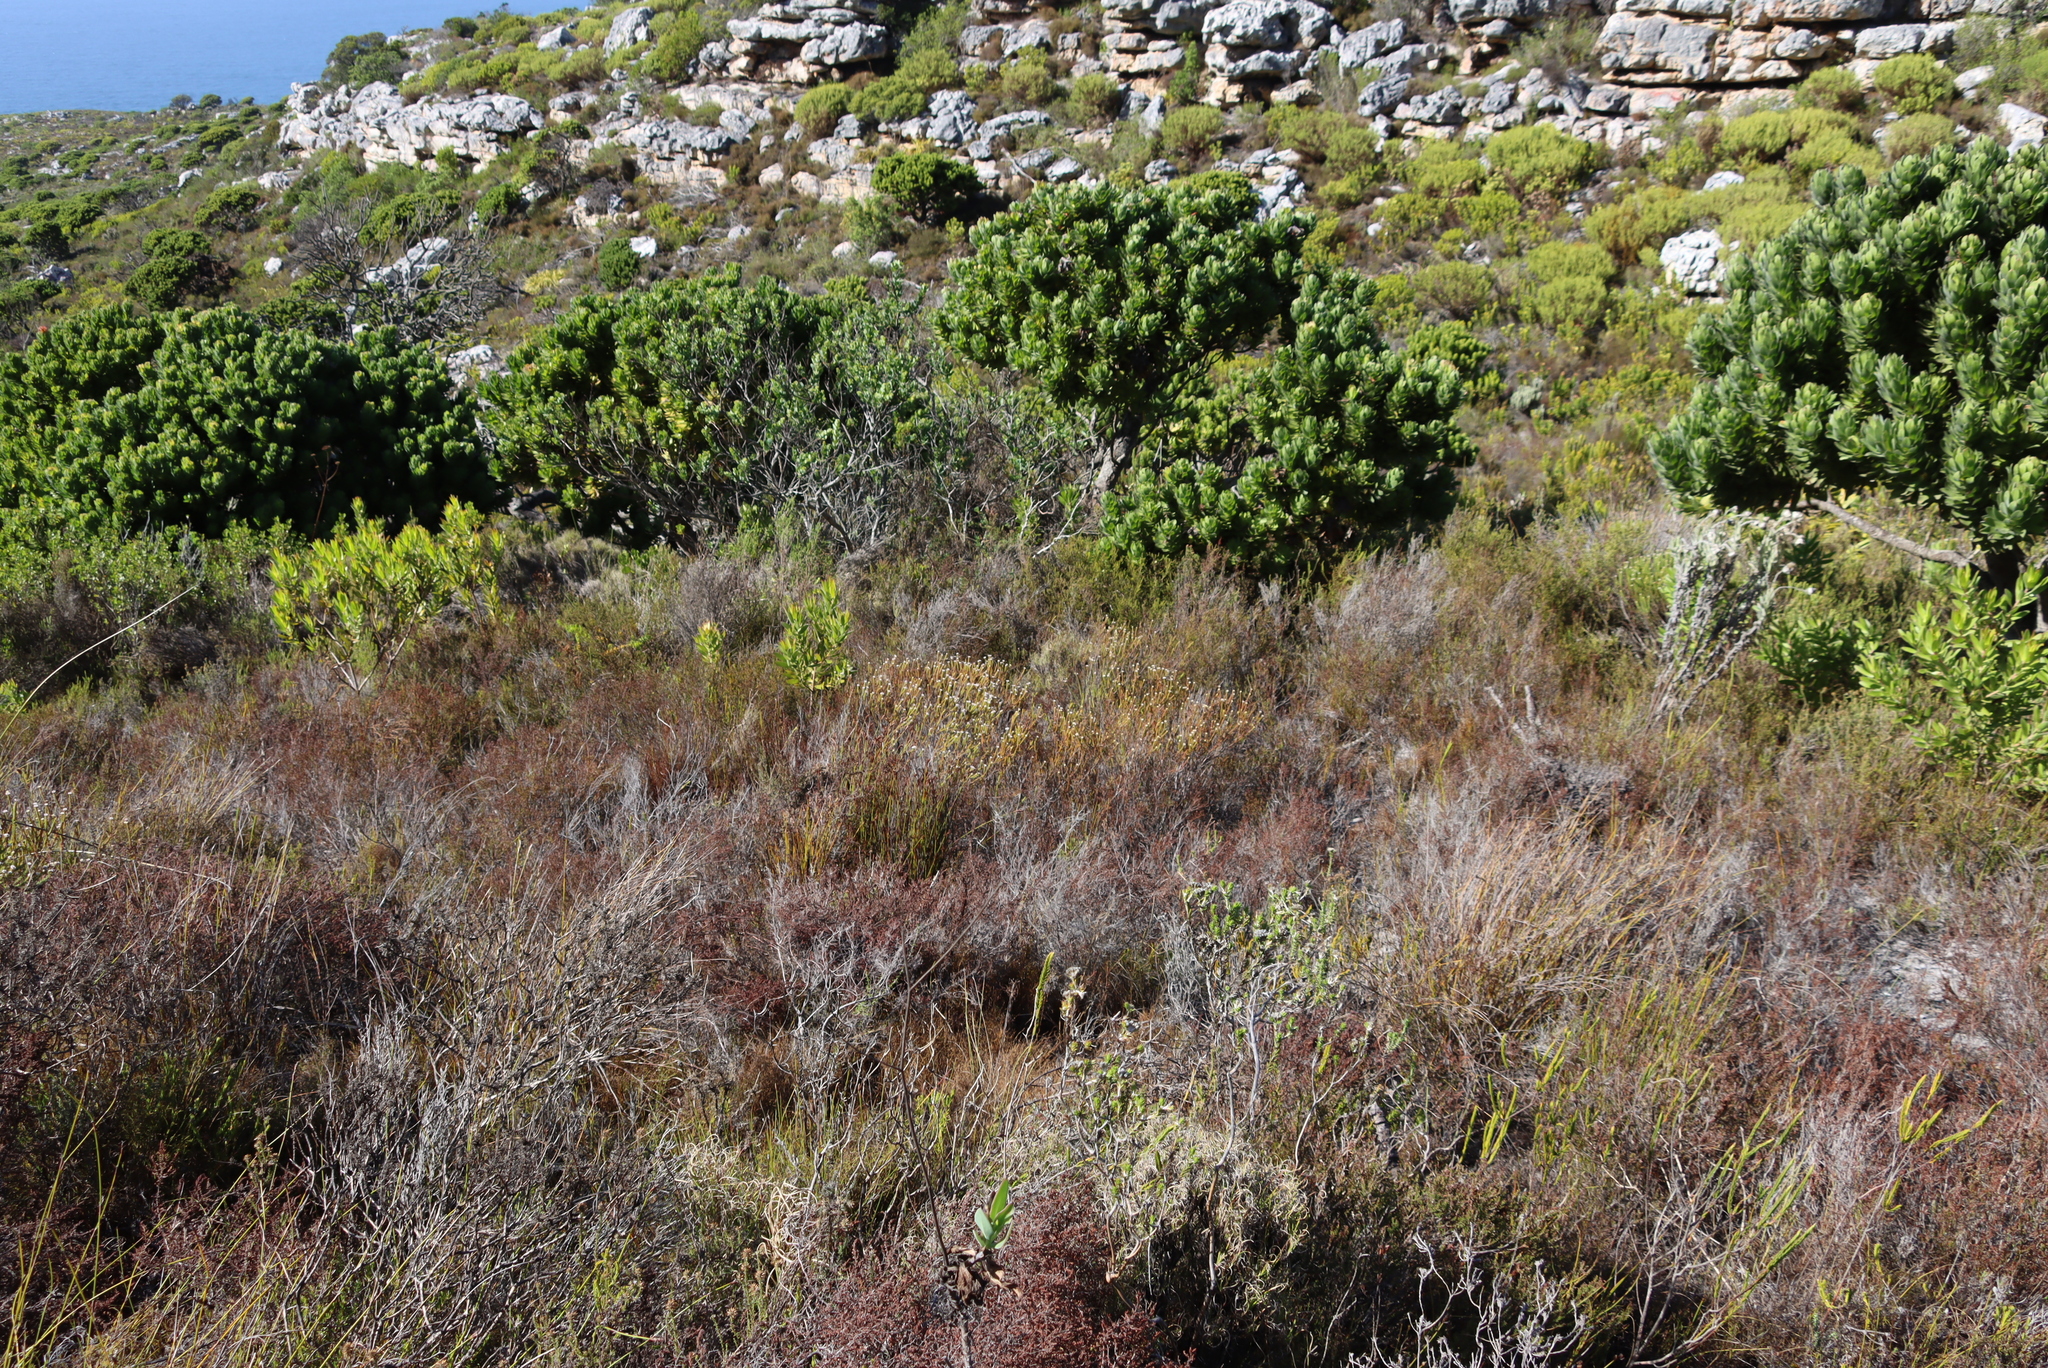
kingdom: Plantae
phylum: Tracheophyta
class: Magnoliopsida
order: Bruniales
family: Bruniaceae
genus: Staavia
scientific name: Staavia radiata
